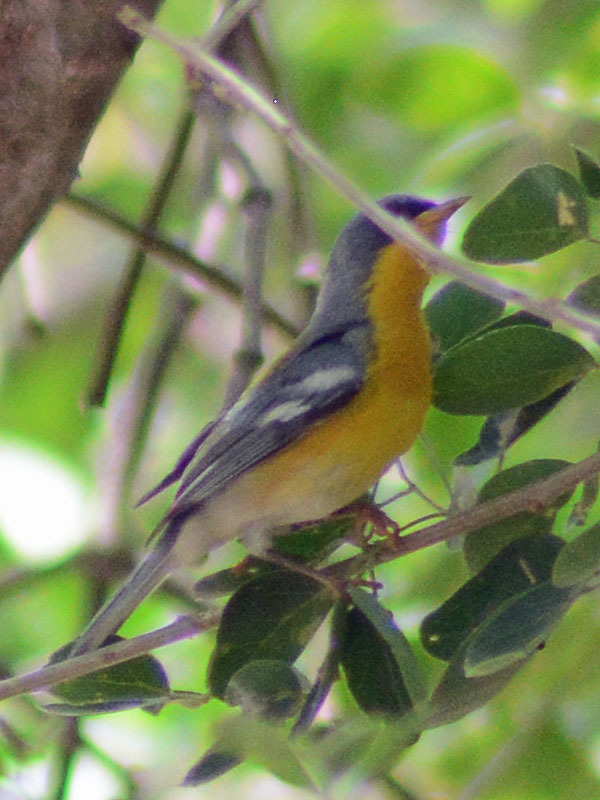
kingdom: Animalia
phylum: Chordata
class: Aves
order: Passeriformes
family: Parulidae
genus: Setophaga
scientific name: Setophaga pitiayumi
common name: Tropical parula
